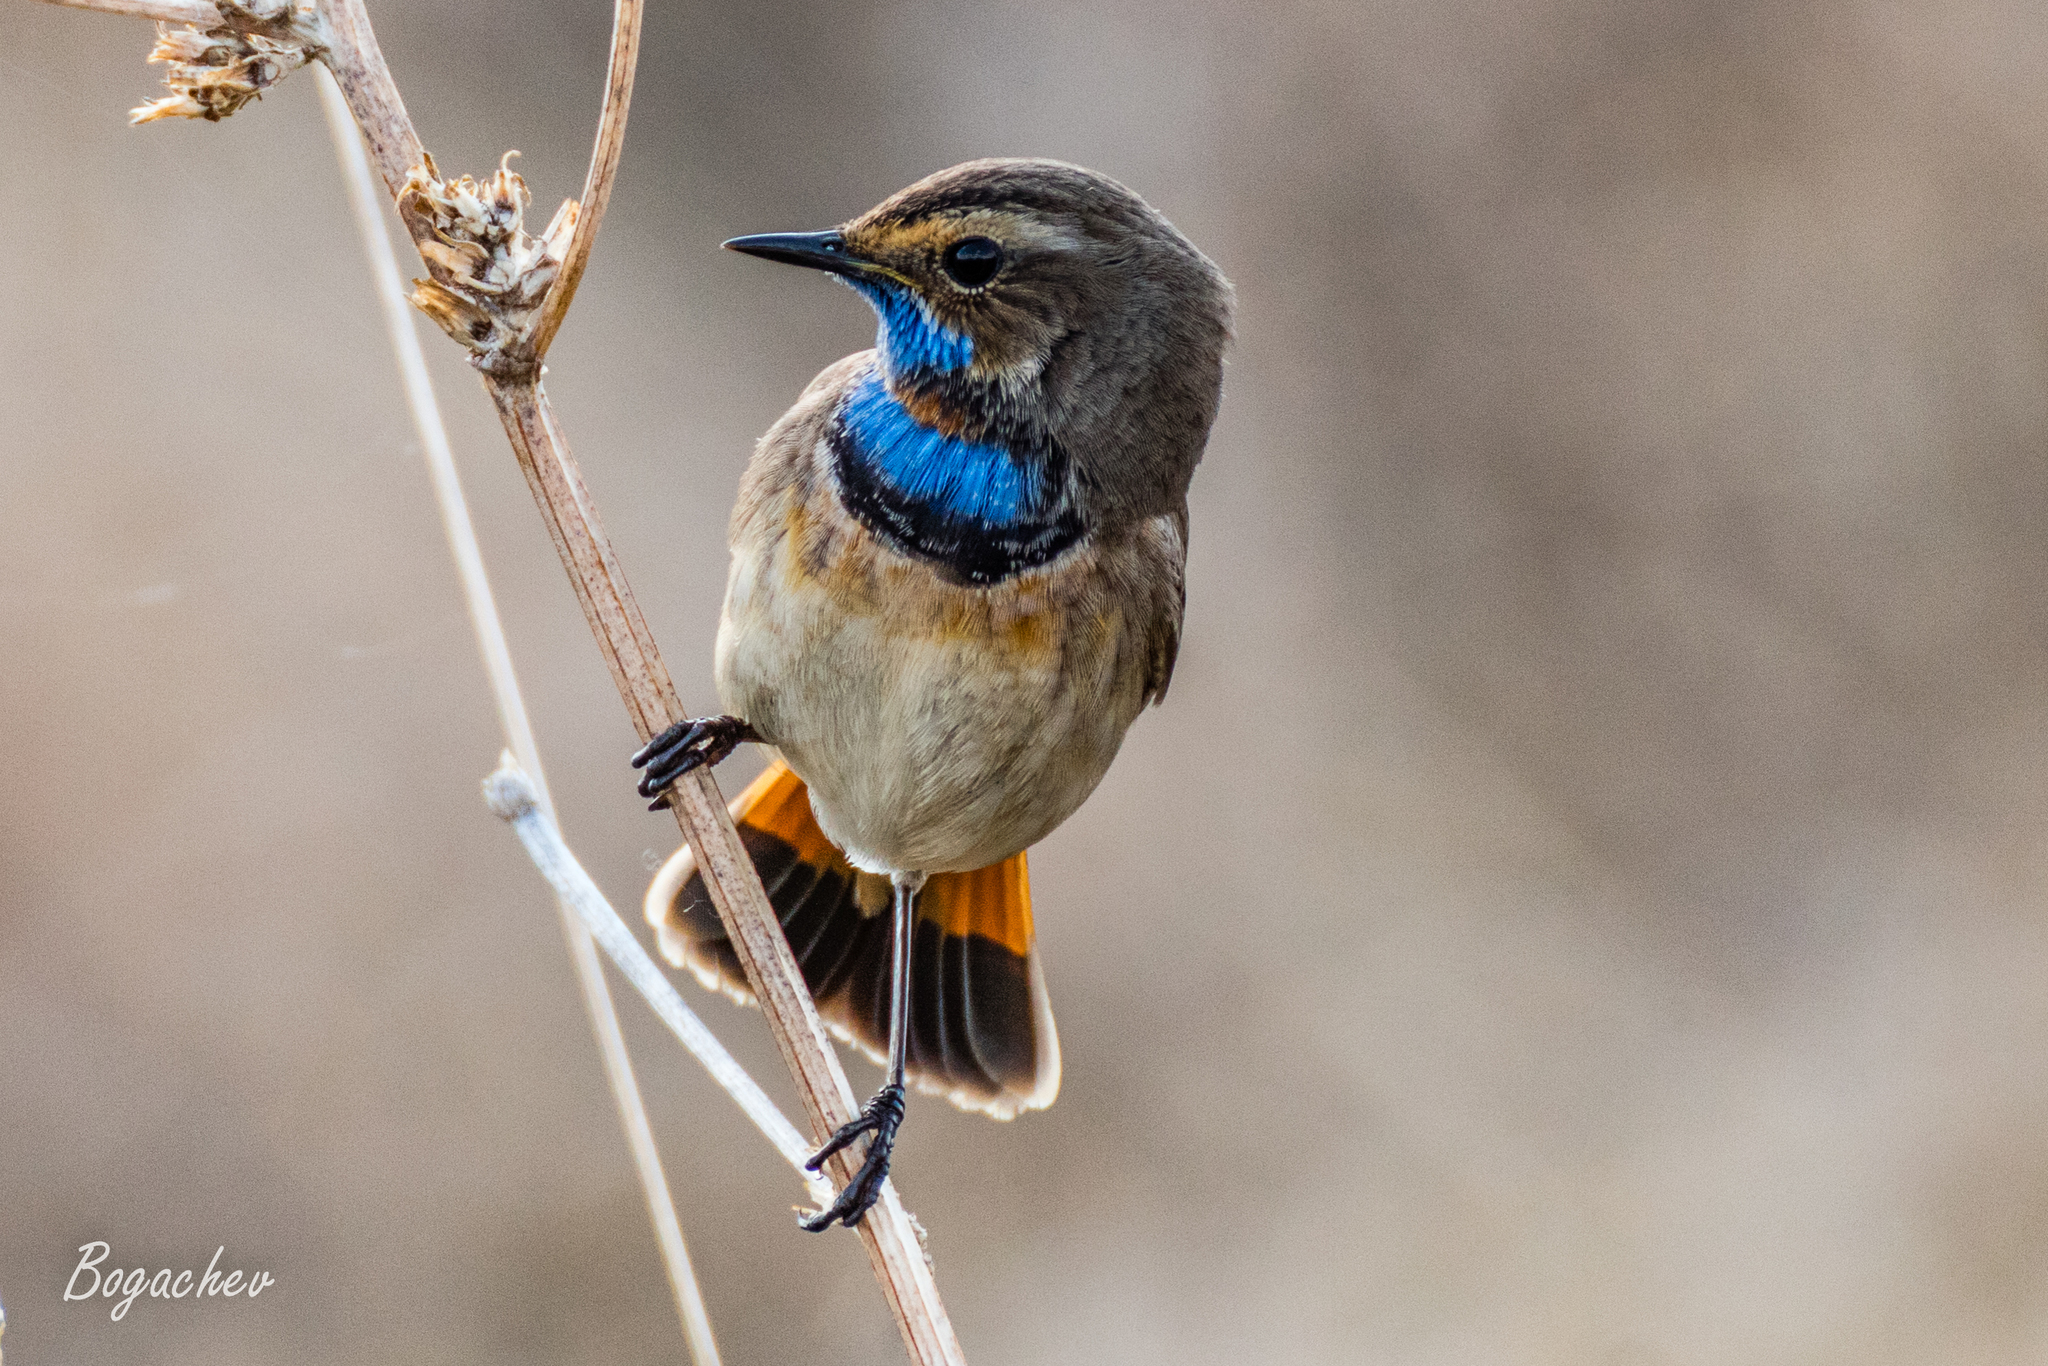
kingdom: Animalia
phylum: Chordata
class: Aves
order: Passeriformes
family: Muscicapidae
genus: Luscinia
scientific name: Luscinia svecica
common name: Bluethroat
